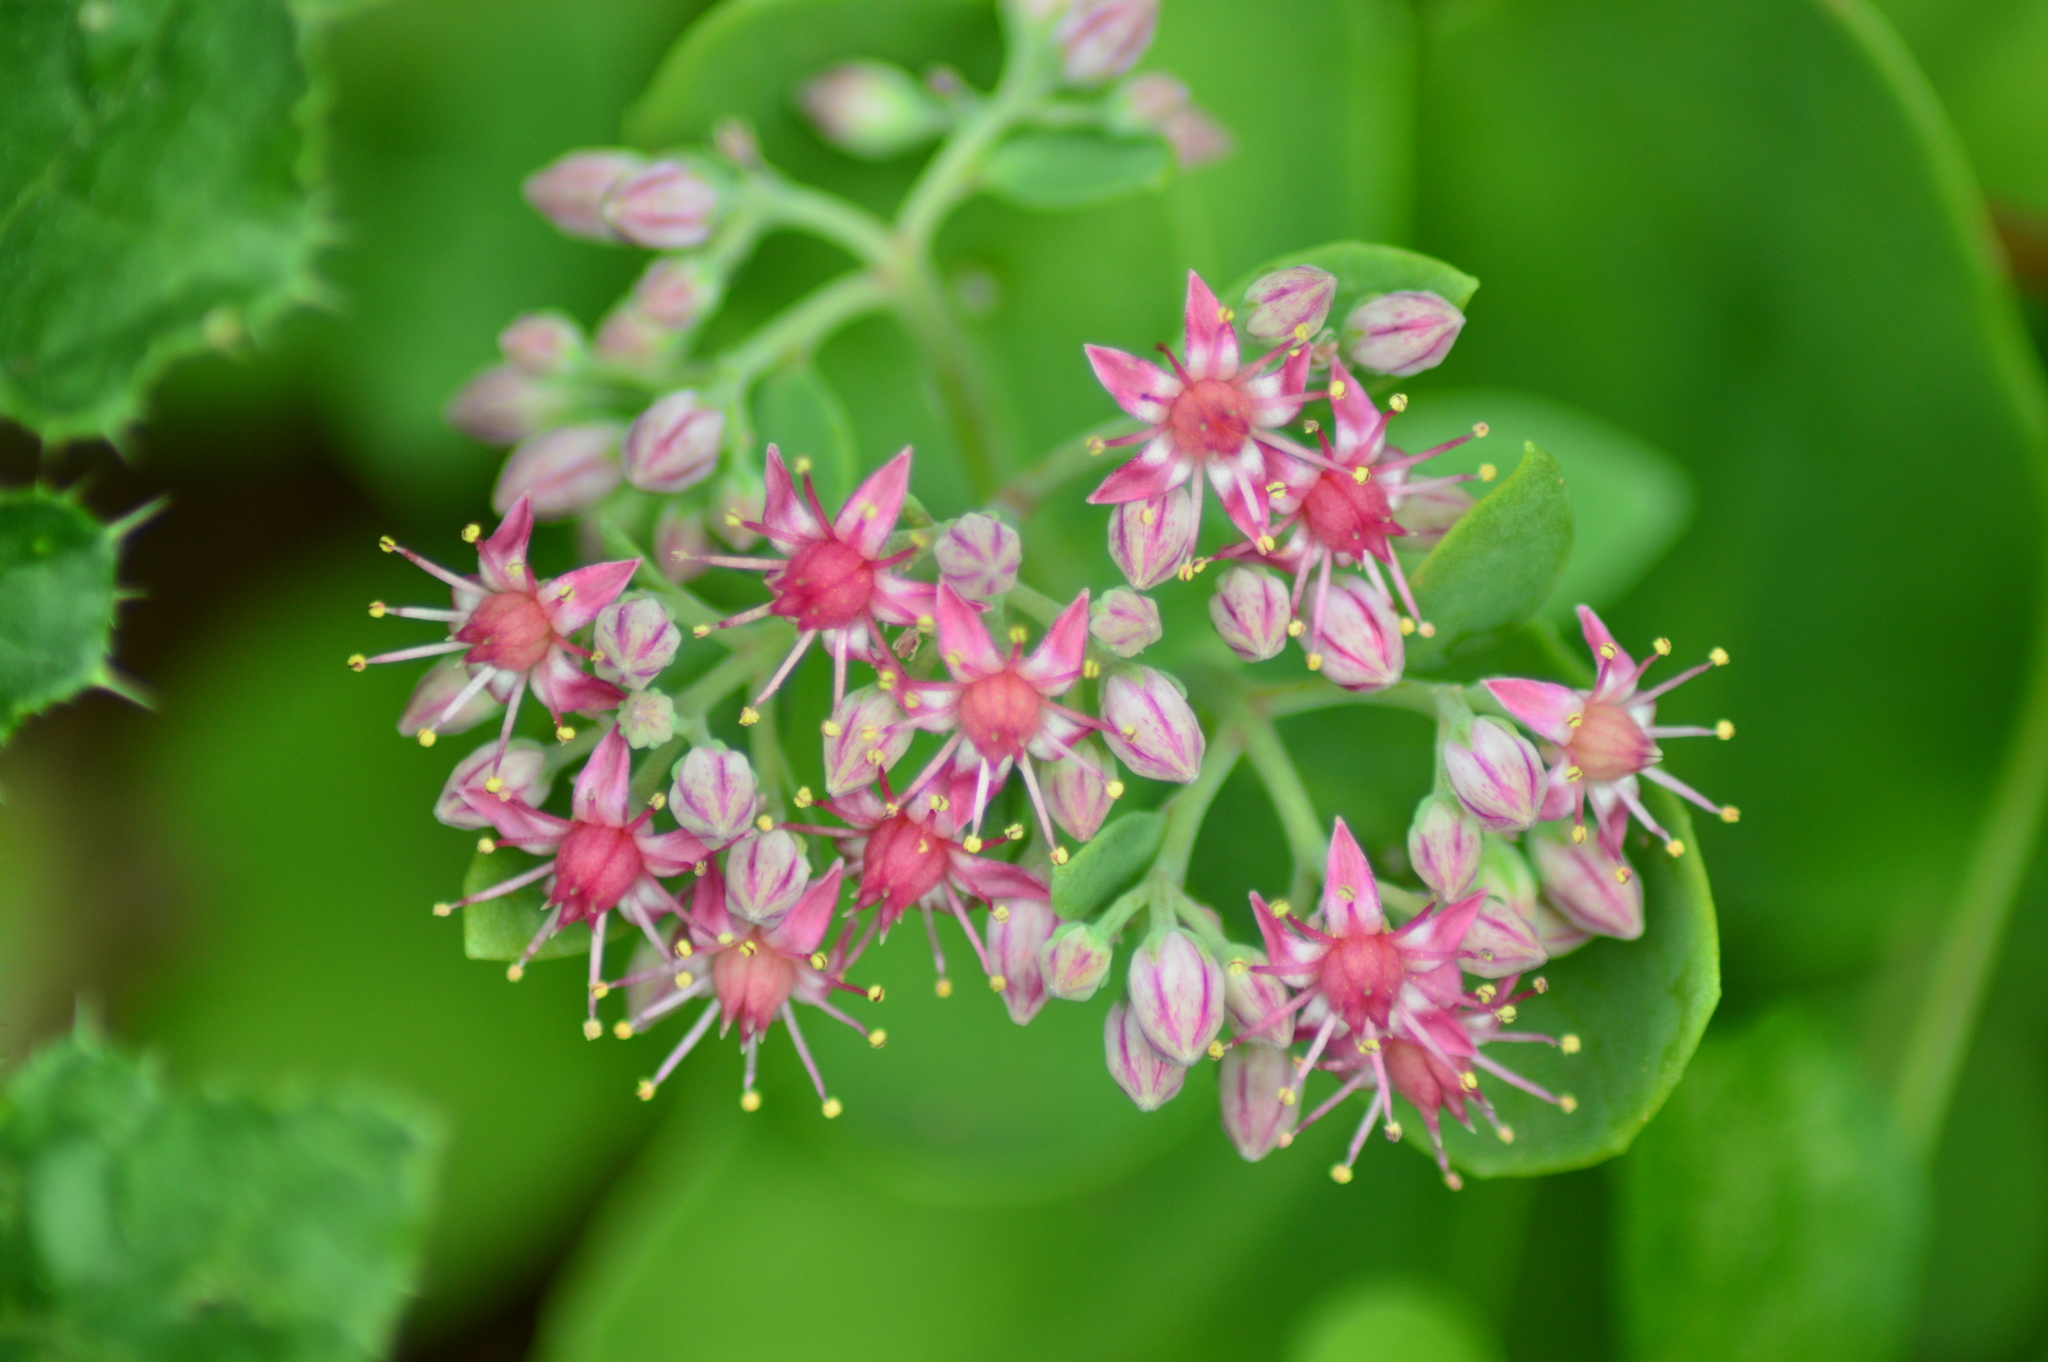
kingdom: Plantae
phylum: Tracheophyta
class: Magnoliopsida
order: Saxifragales
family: Crassulaceae
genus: Hylotelephium
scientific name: Hylotelephium telephium
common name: Live-forever
